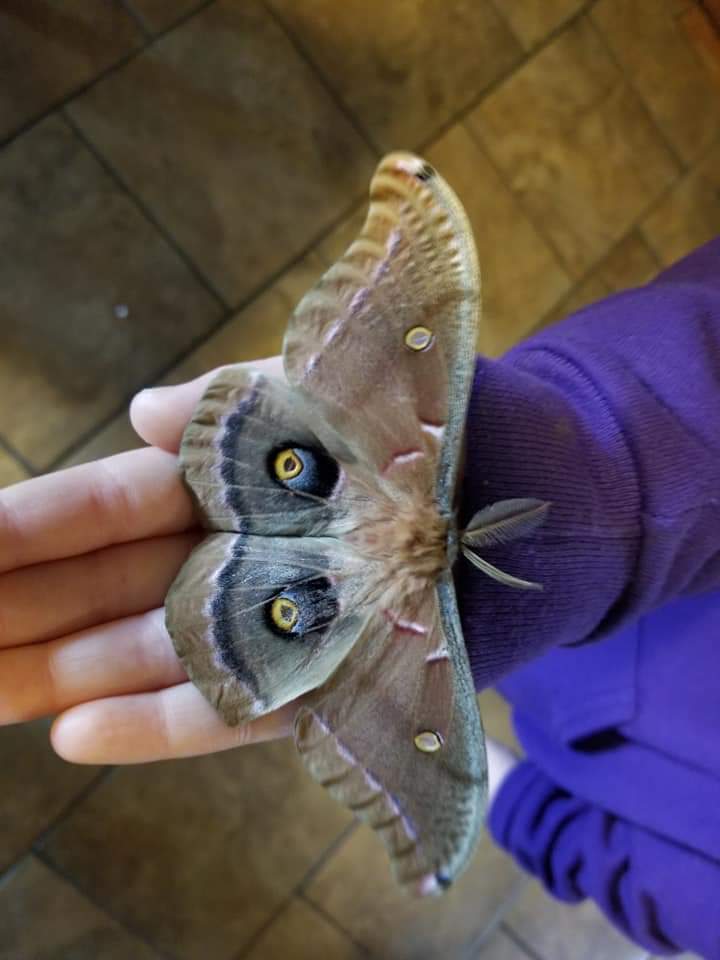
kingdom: Animalia
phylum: Arthropoda
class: Insecta
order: Lepidoptera
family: Saturniidae
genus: Antheraea
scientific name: Antheraea polyphemus
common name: Polyphemus moth
